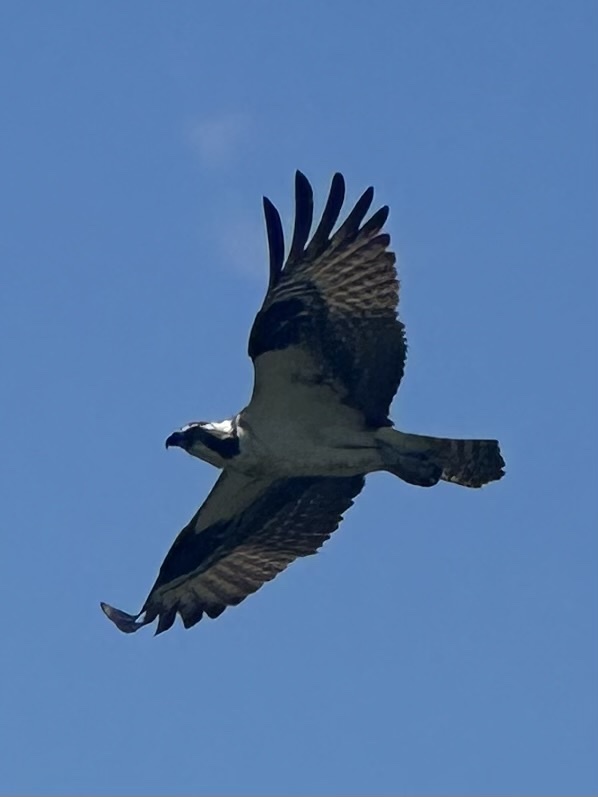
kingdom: Animalia
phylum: Chordata
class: Aves
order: Accipitriformes
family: Pandionidae
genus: Pandion
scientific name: Pandion haliaetus
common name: Osprey
